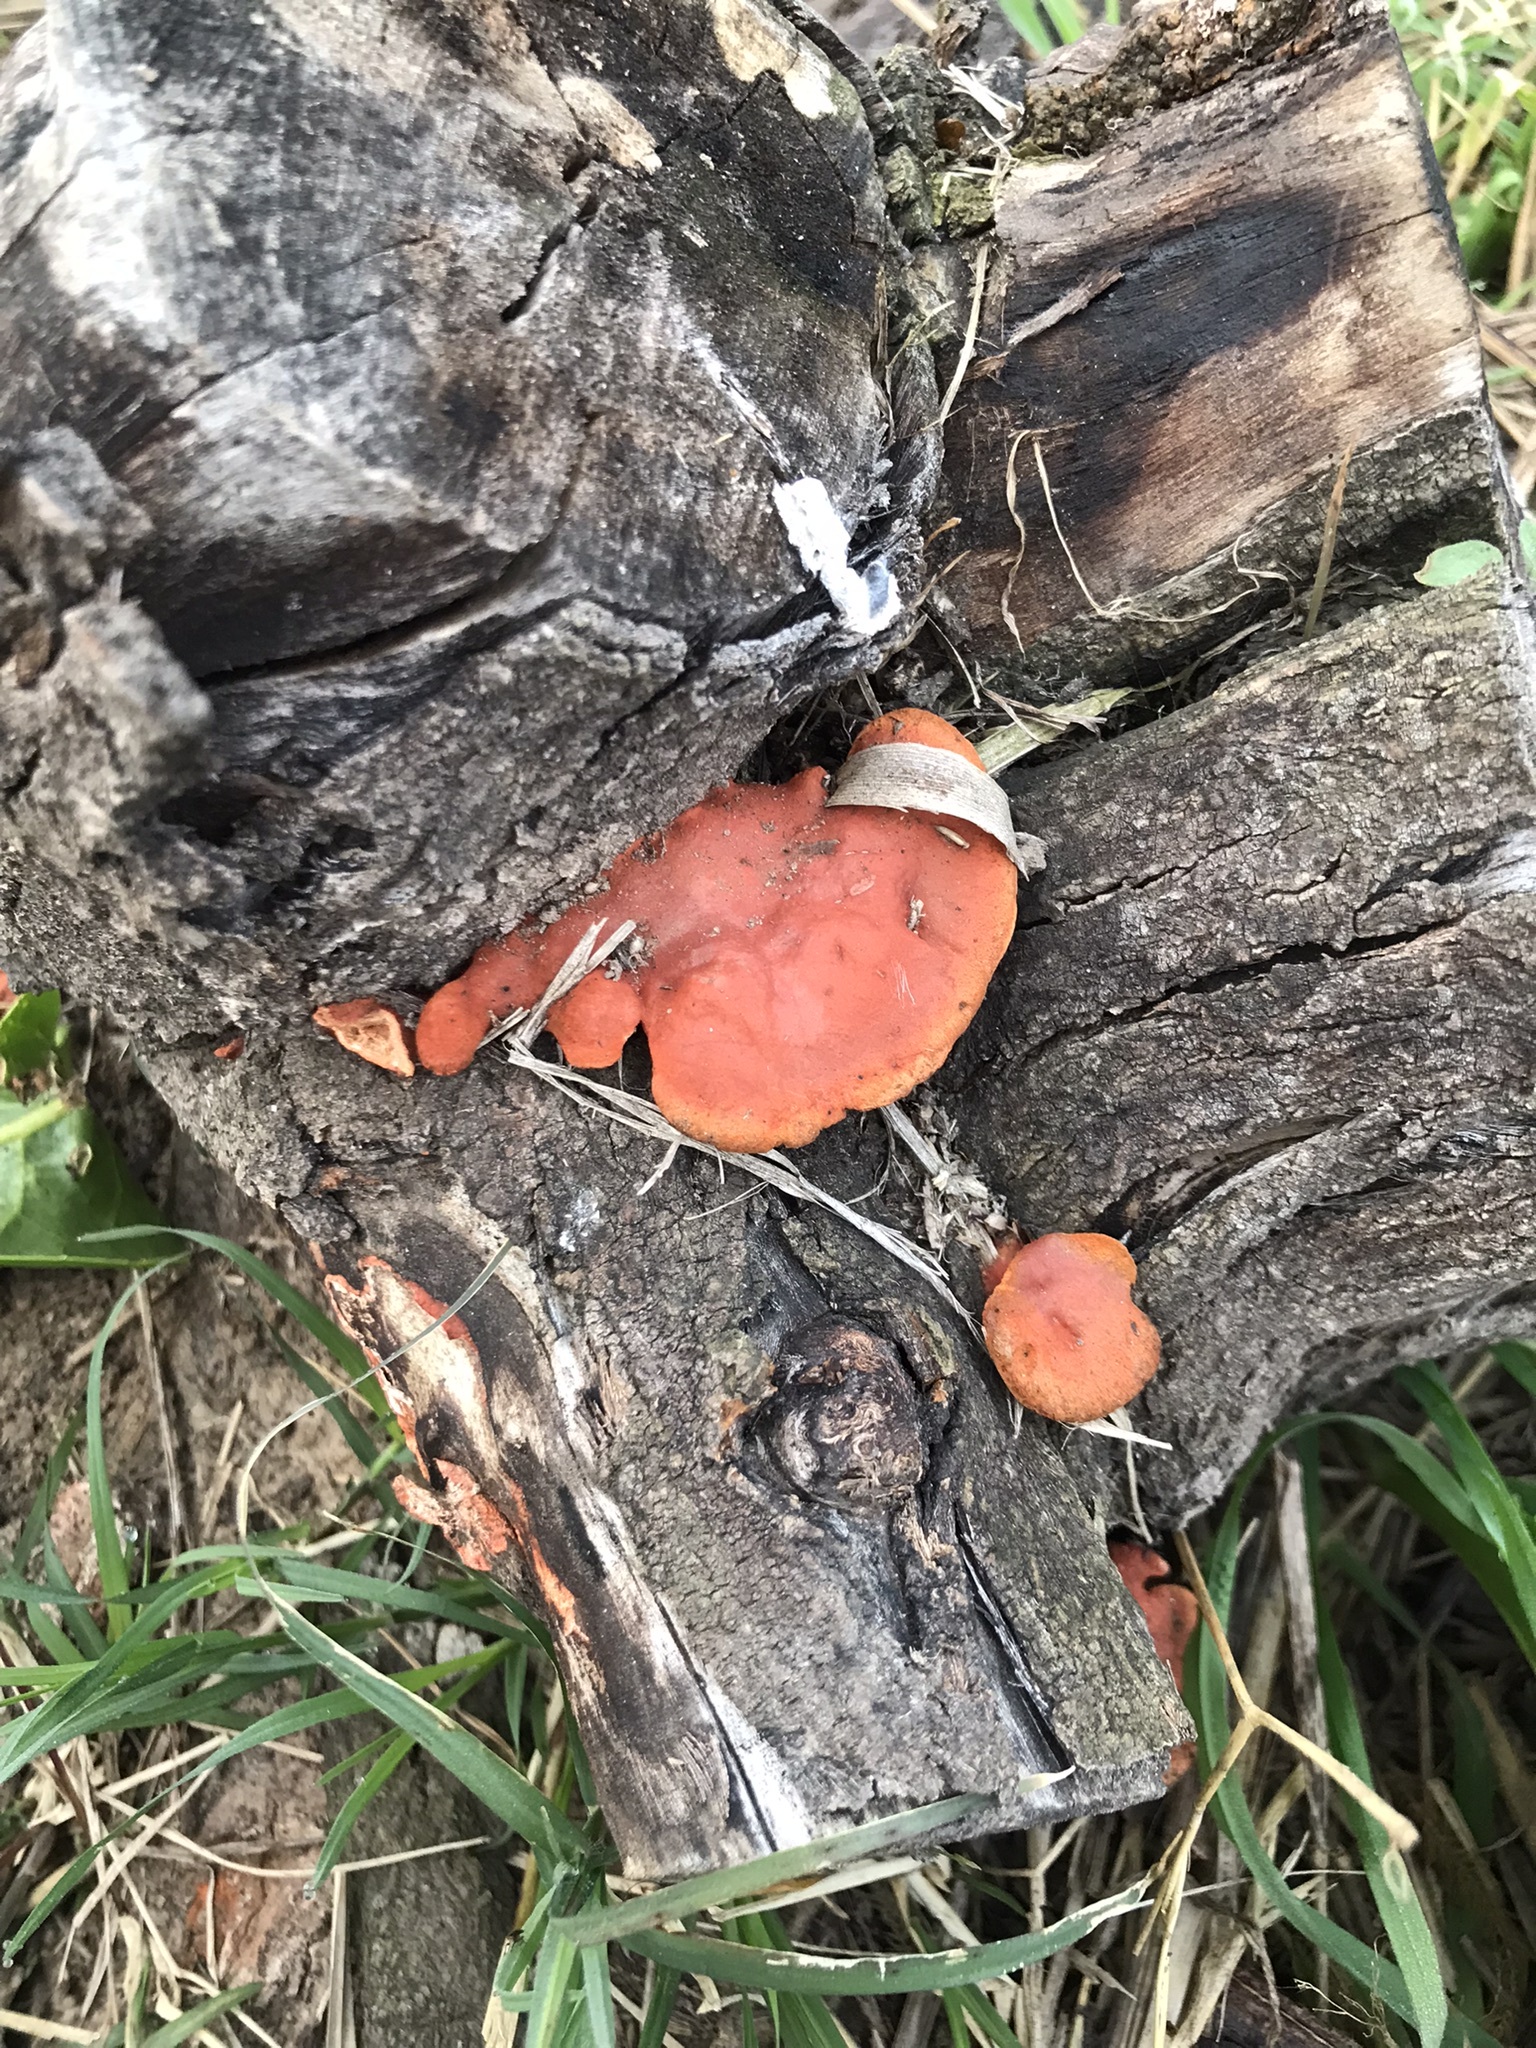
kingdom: Fungi
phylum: Basidiomycota
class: Agaricomycetes
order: Polyporales
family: Polyporaceae
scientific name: Polyporaceae
